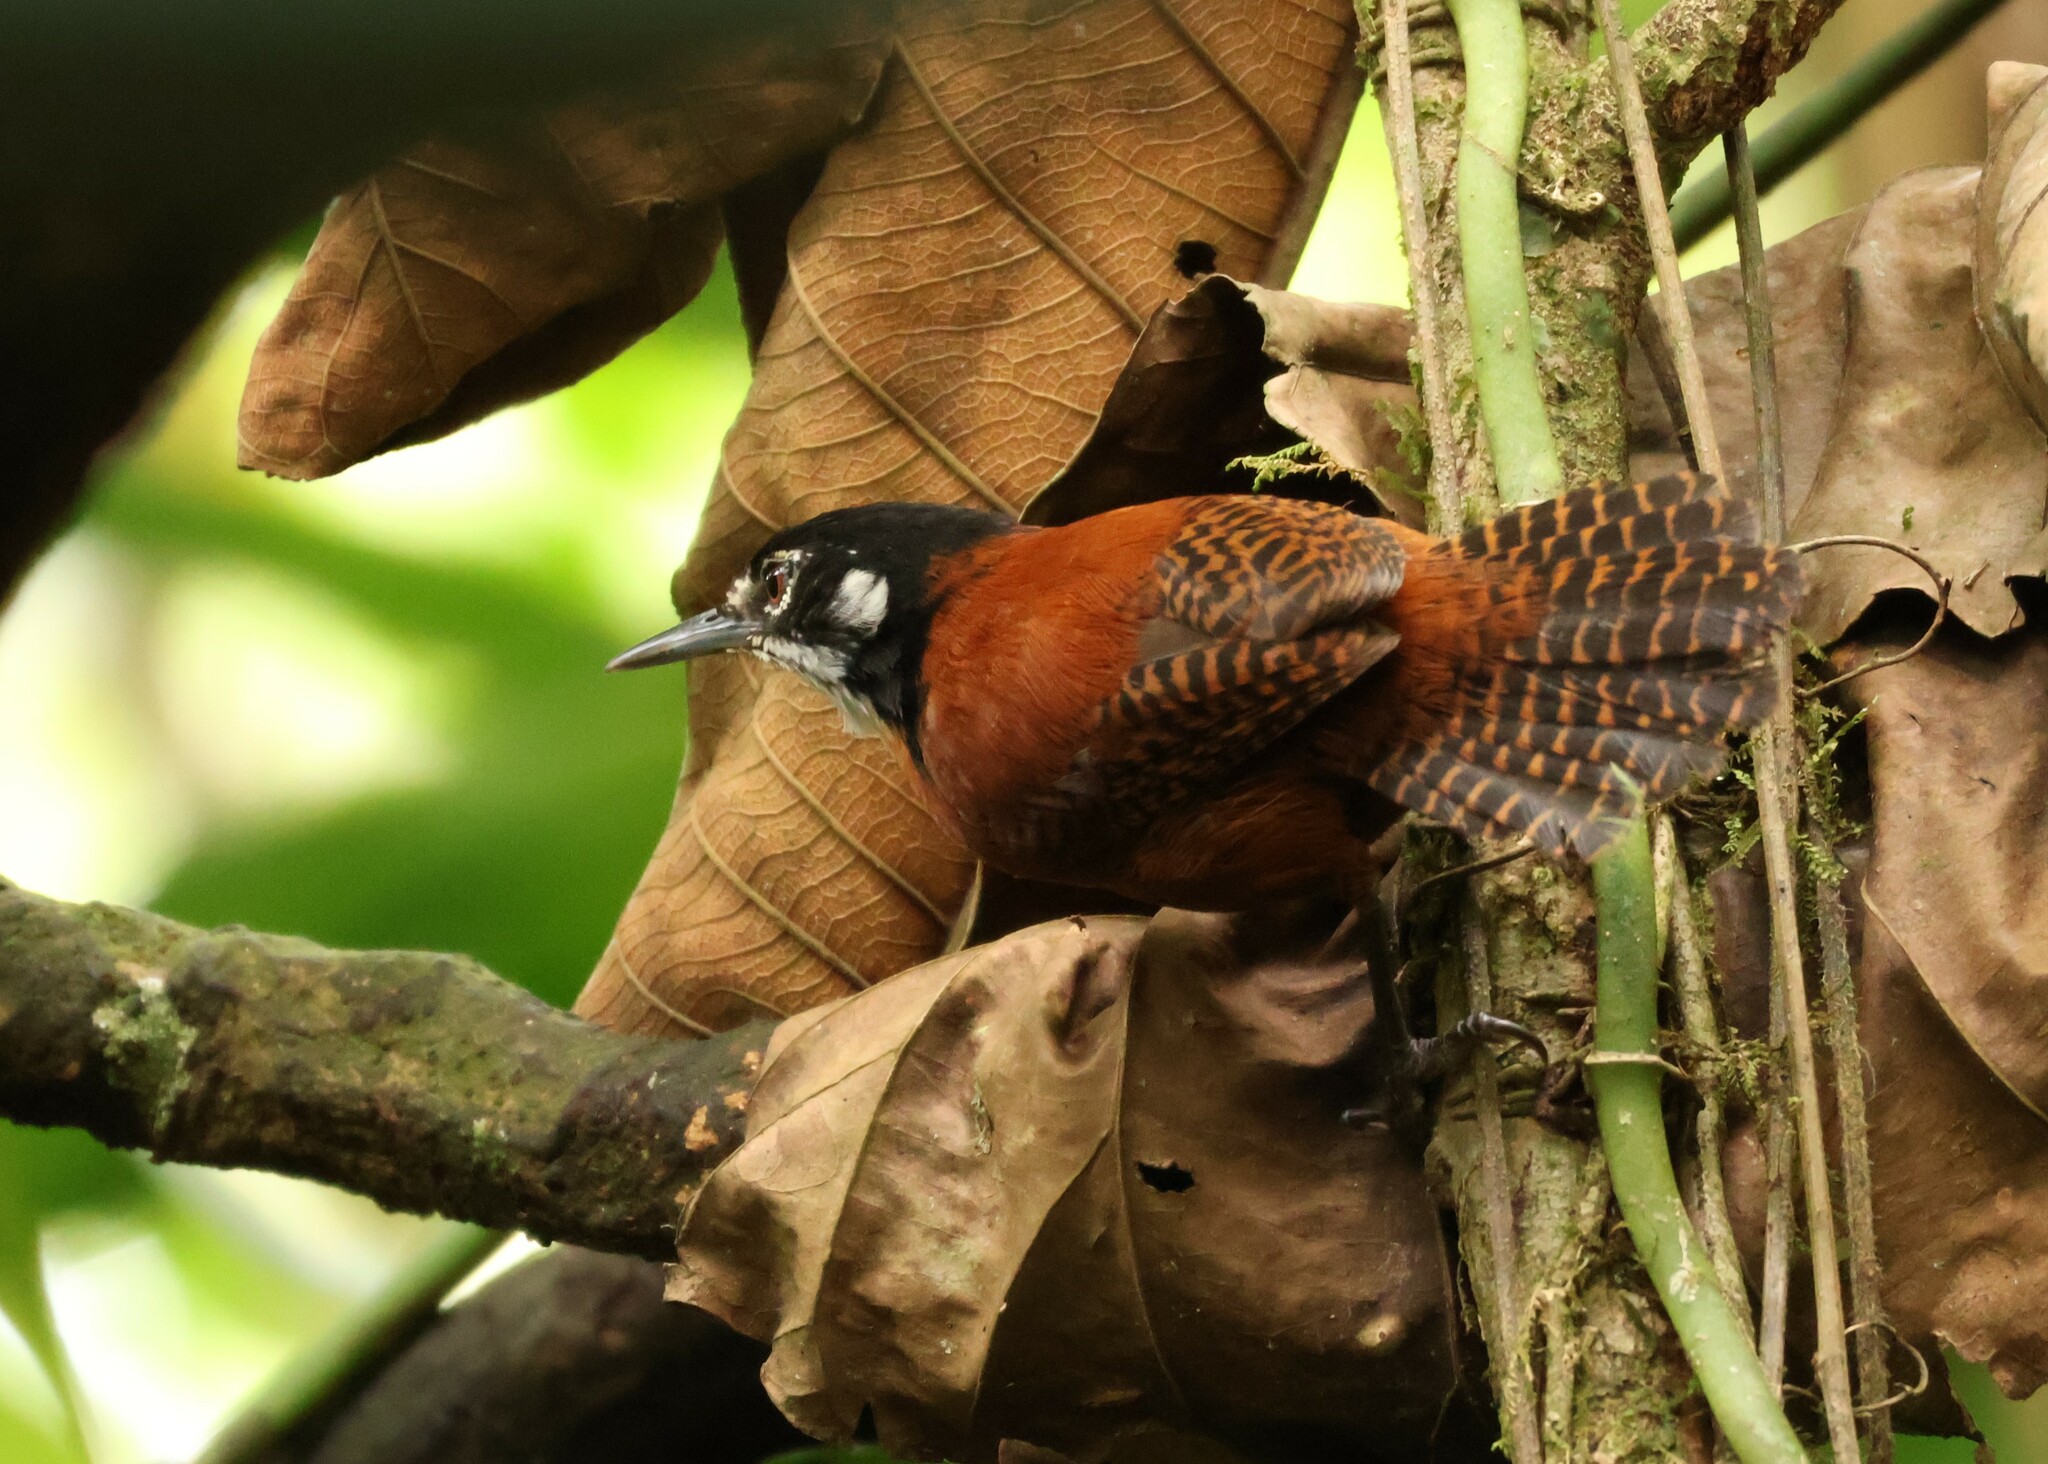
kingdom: Animalia
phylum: Chordata
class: Aves
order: Passeriformes
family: Troglodytidae
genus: Cantorchilus
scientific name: Cantorchilus nigricapillus
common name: Bay wren
